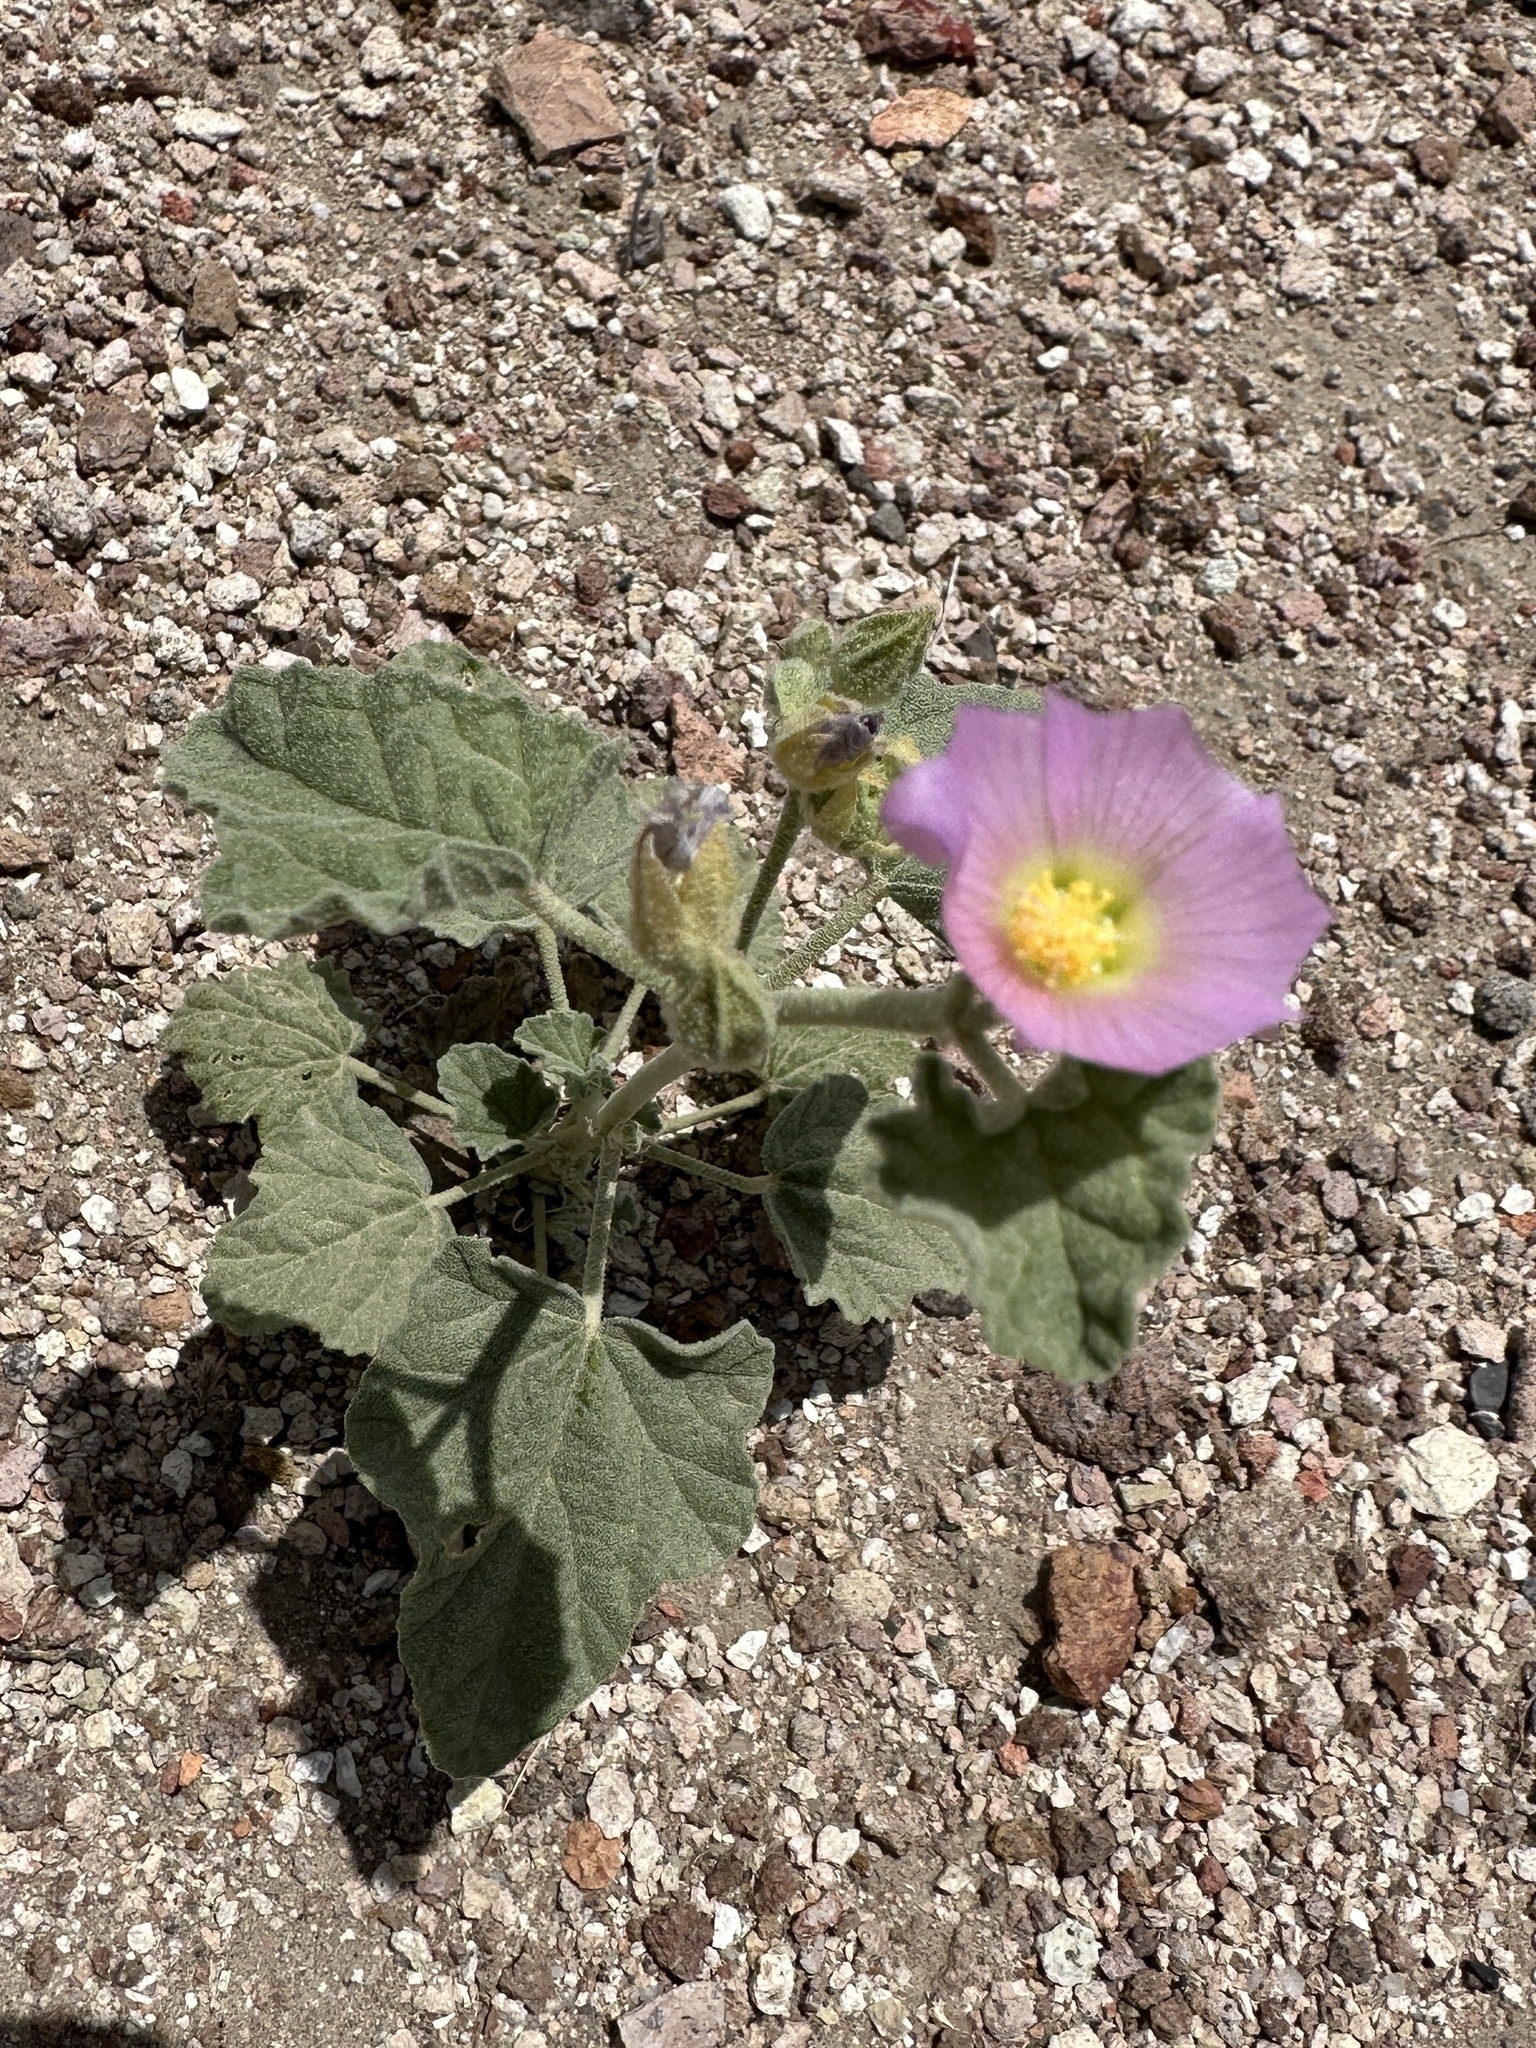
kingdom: Plantae
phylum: Tracheophyta
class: Magnoliopsida
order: Malvales
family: Malvaceae
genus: Sphaeralcea
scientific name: Sphaeralcea ambigua
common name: Apricot globe-mallow
